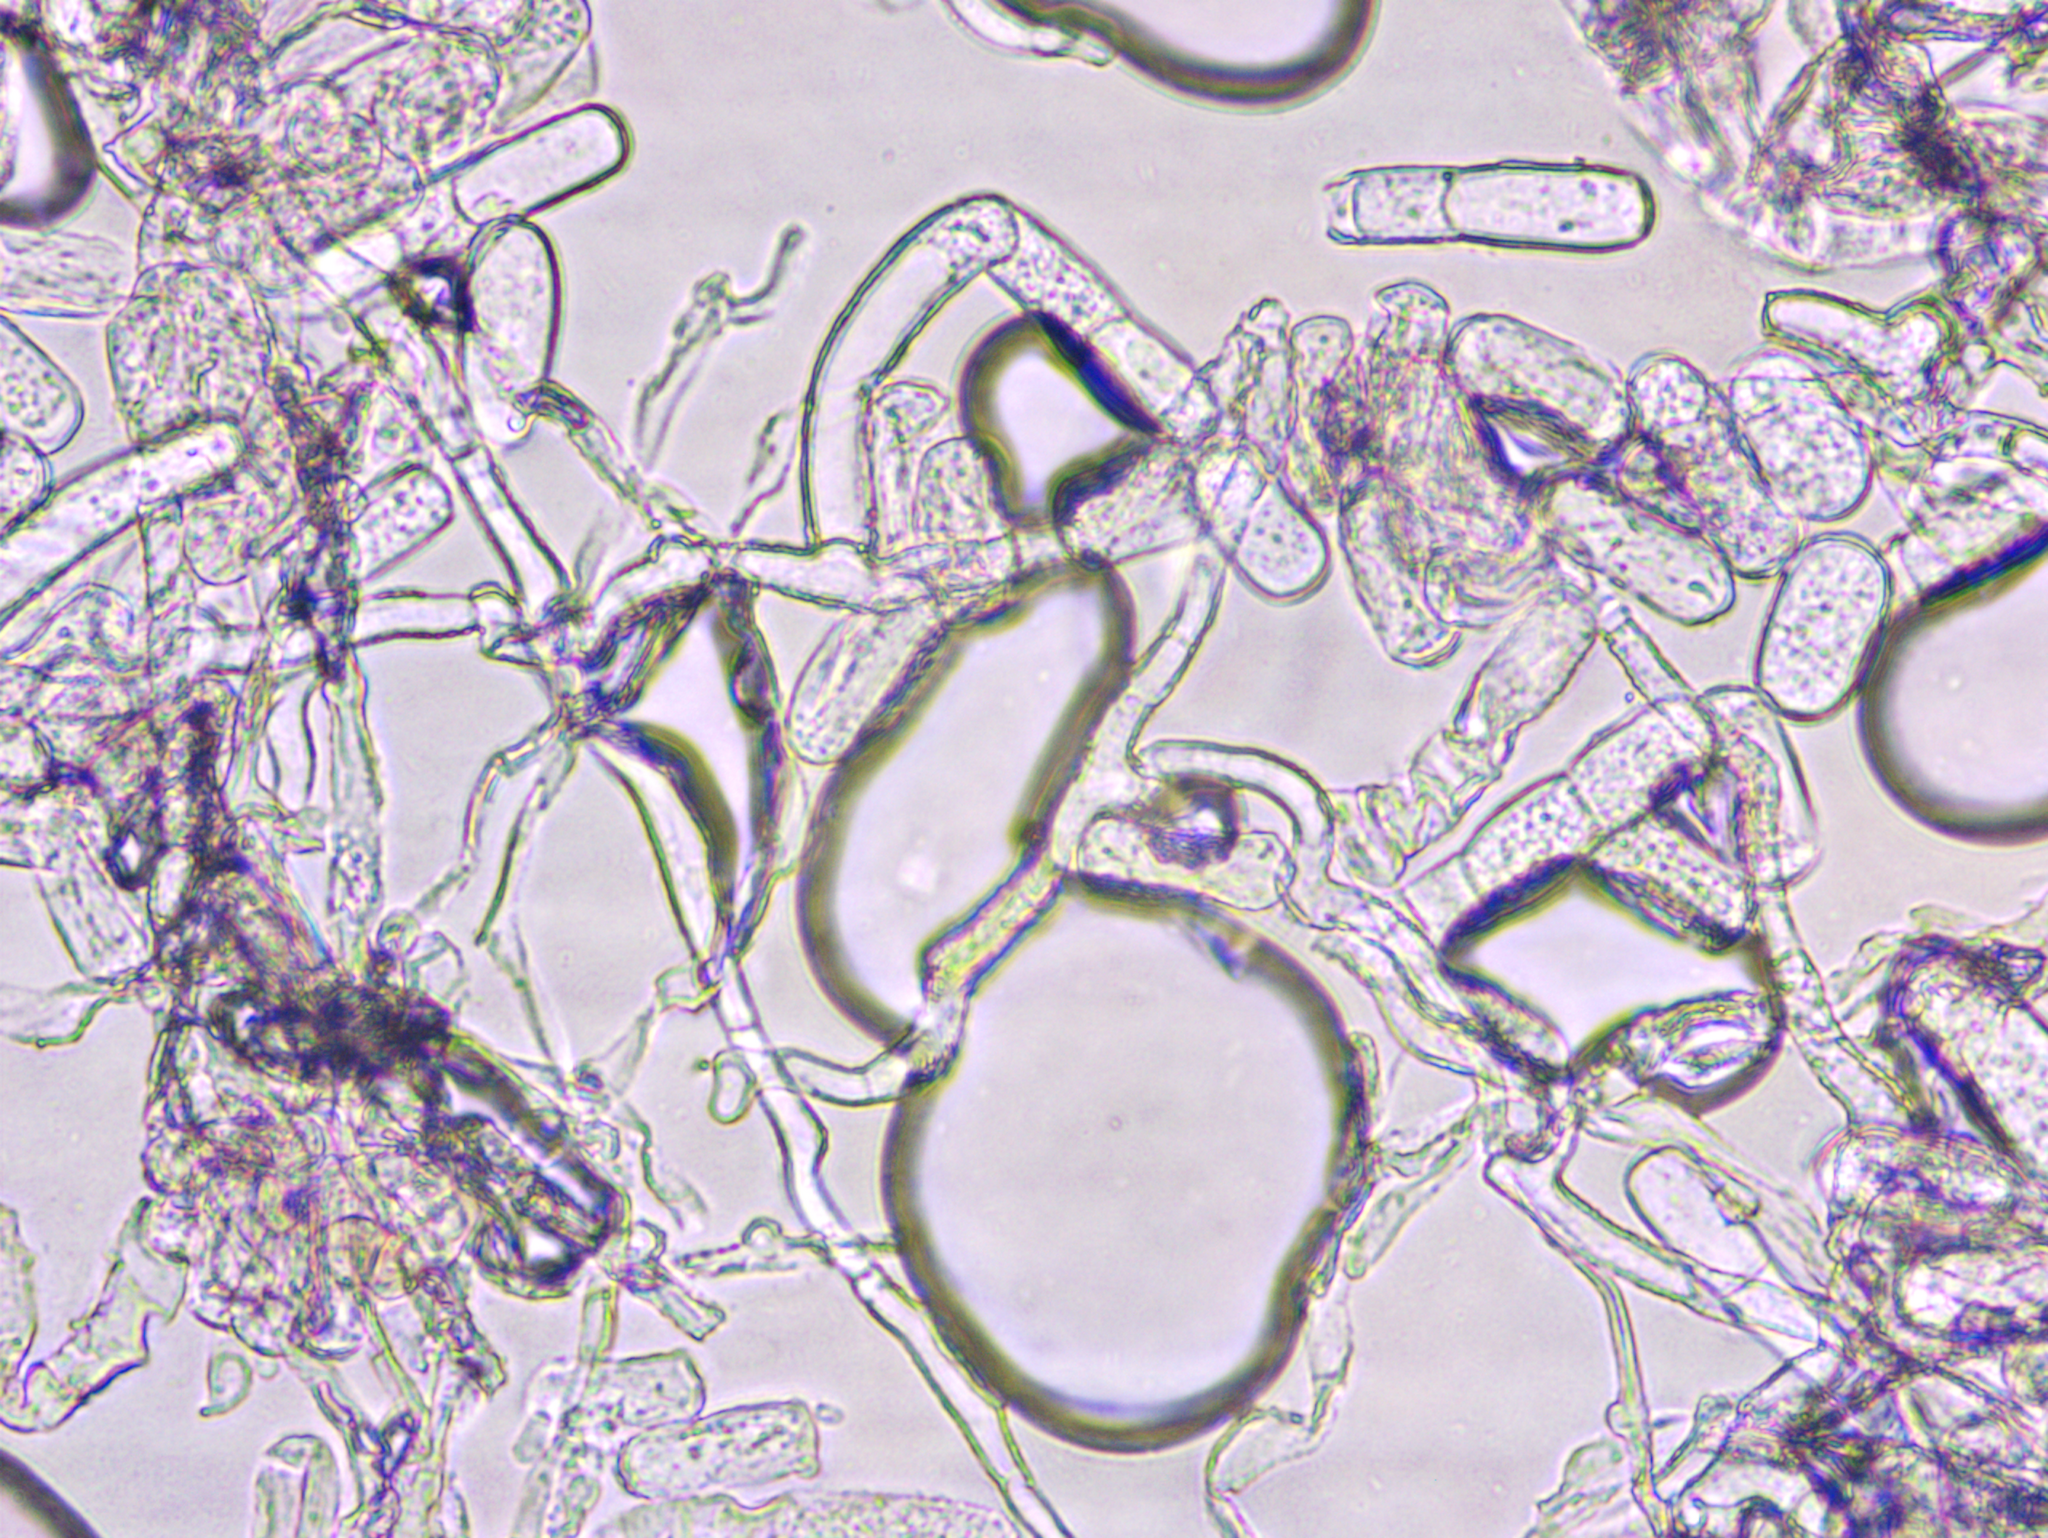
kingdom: Fungi
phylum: Ascomycota
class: Leotiomycetes
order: Helotiales
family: Erysiphaceae
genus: Erysiphe
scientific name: Erysiphe mougeotii
